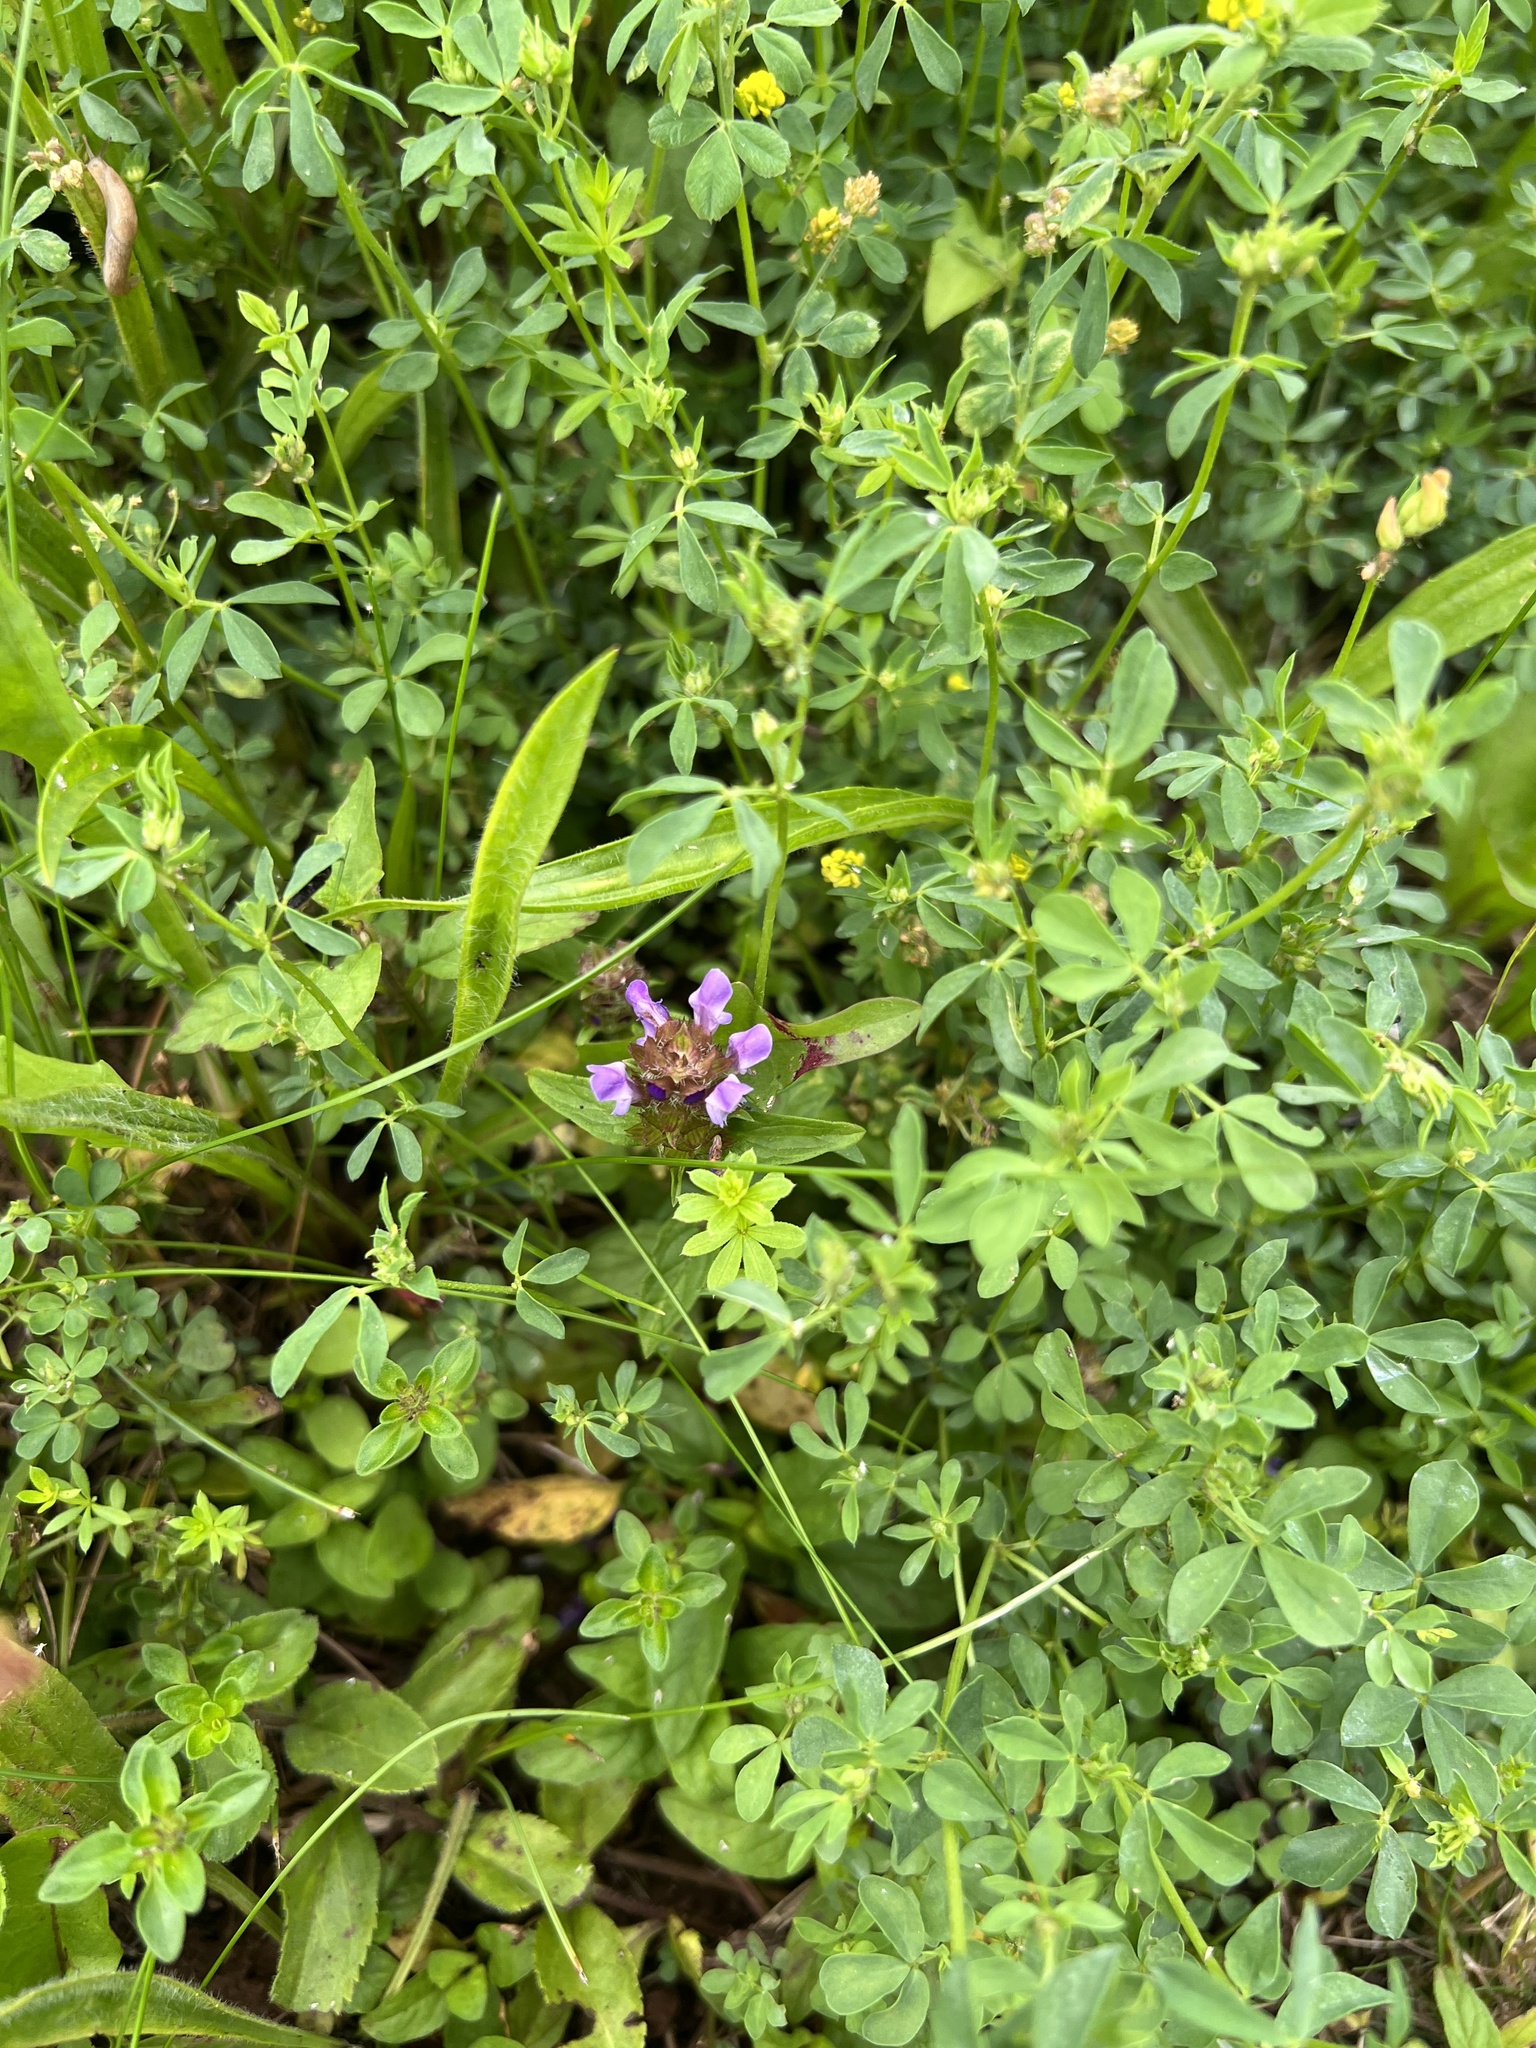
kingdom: Plantae
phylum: Tracheophyta
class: Magnoliopsida
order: Lamiales
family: Lamiaceae
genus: Prunella
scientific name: Prunella vulgaris
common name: Heal-all
